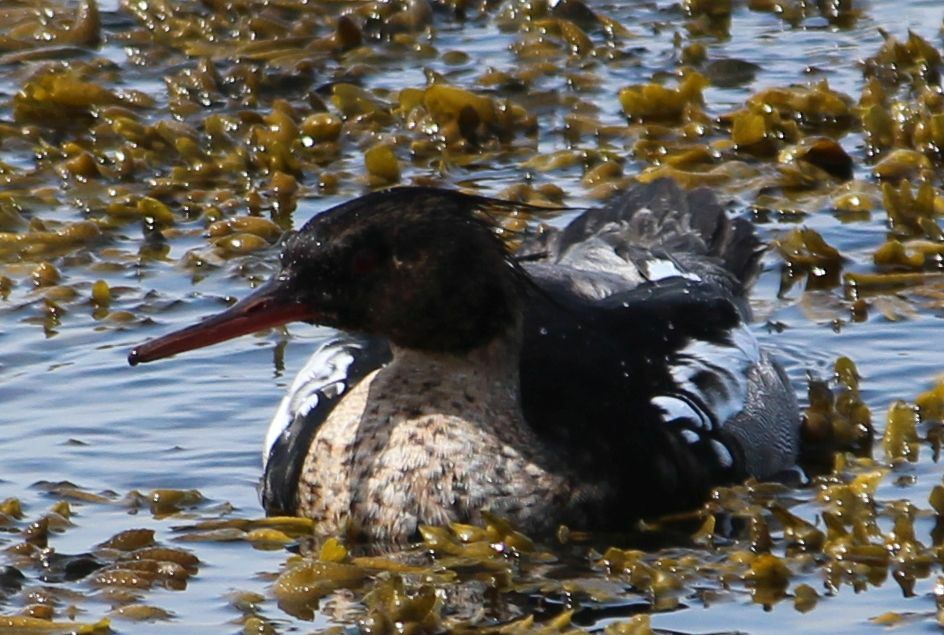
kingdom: Animalia
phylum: Chordata
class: Aves
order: Anseriformes
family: Anatidae
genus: Mergus
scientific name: Mergus serrator
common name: Red-breasted merganser
